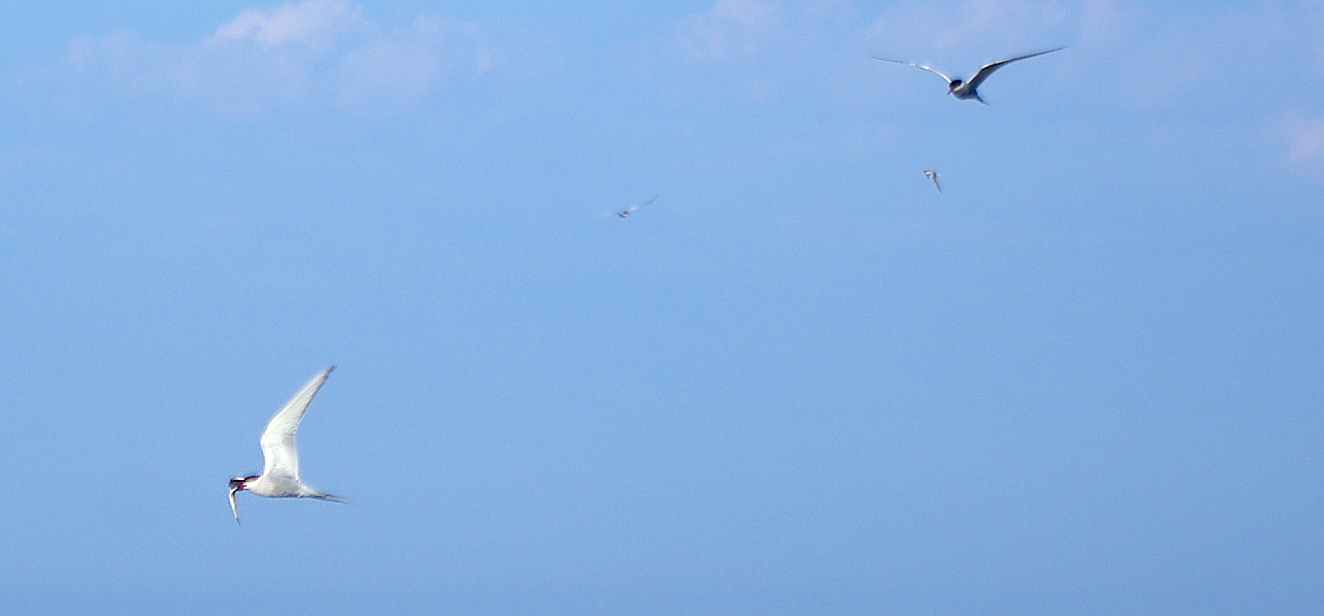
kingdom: Animalia
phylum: Chordata
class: Aves
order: Charadriiformes
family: Laridae
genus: Sterna
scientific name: Sterna paradisaea
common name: Arctic tern
